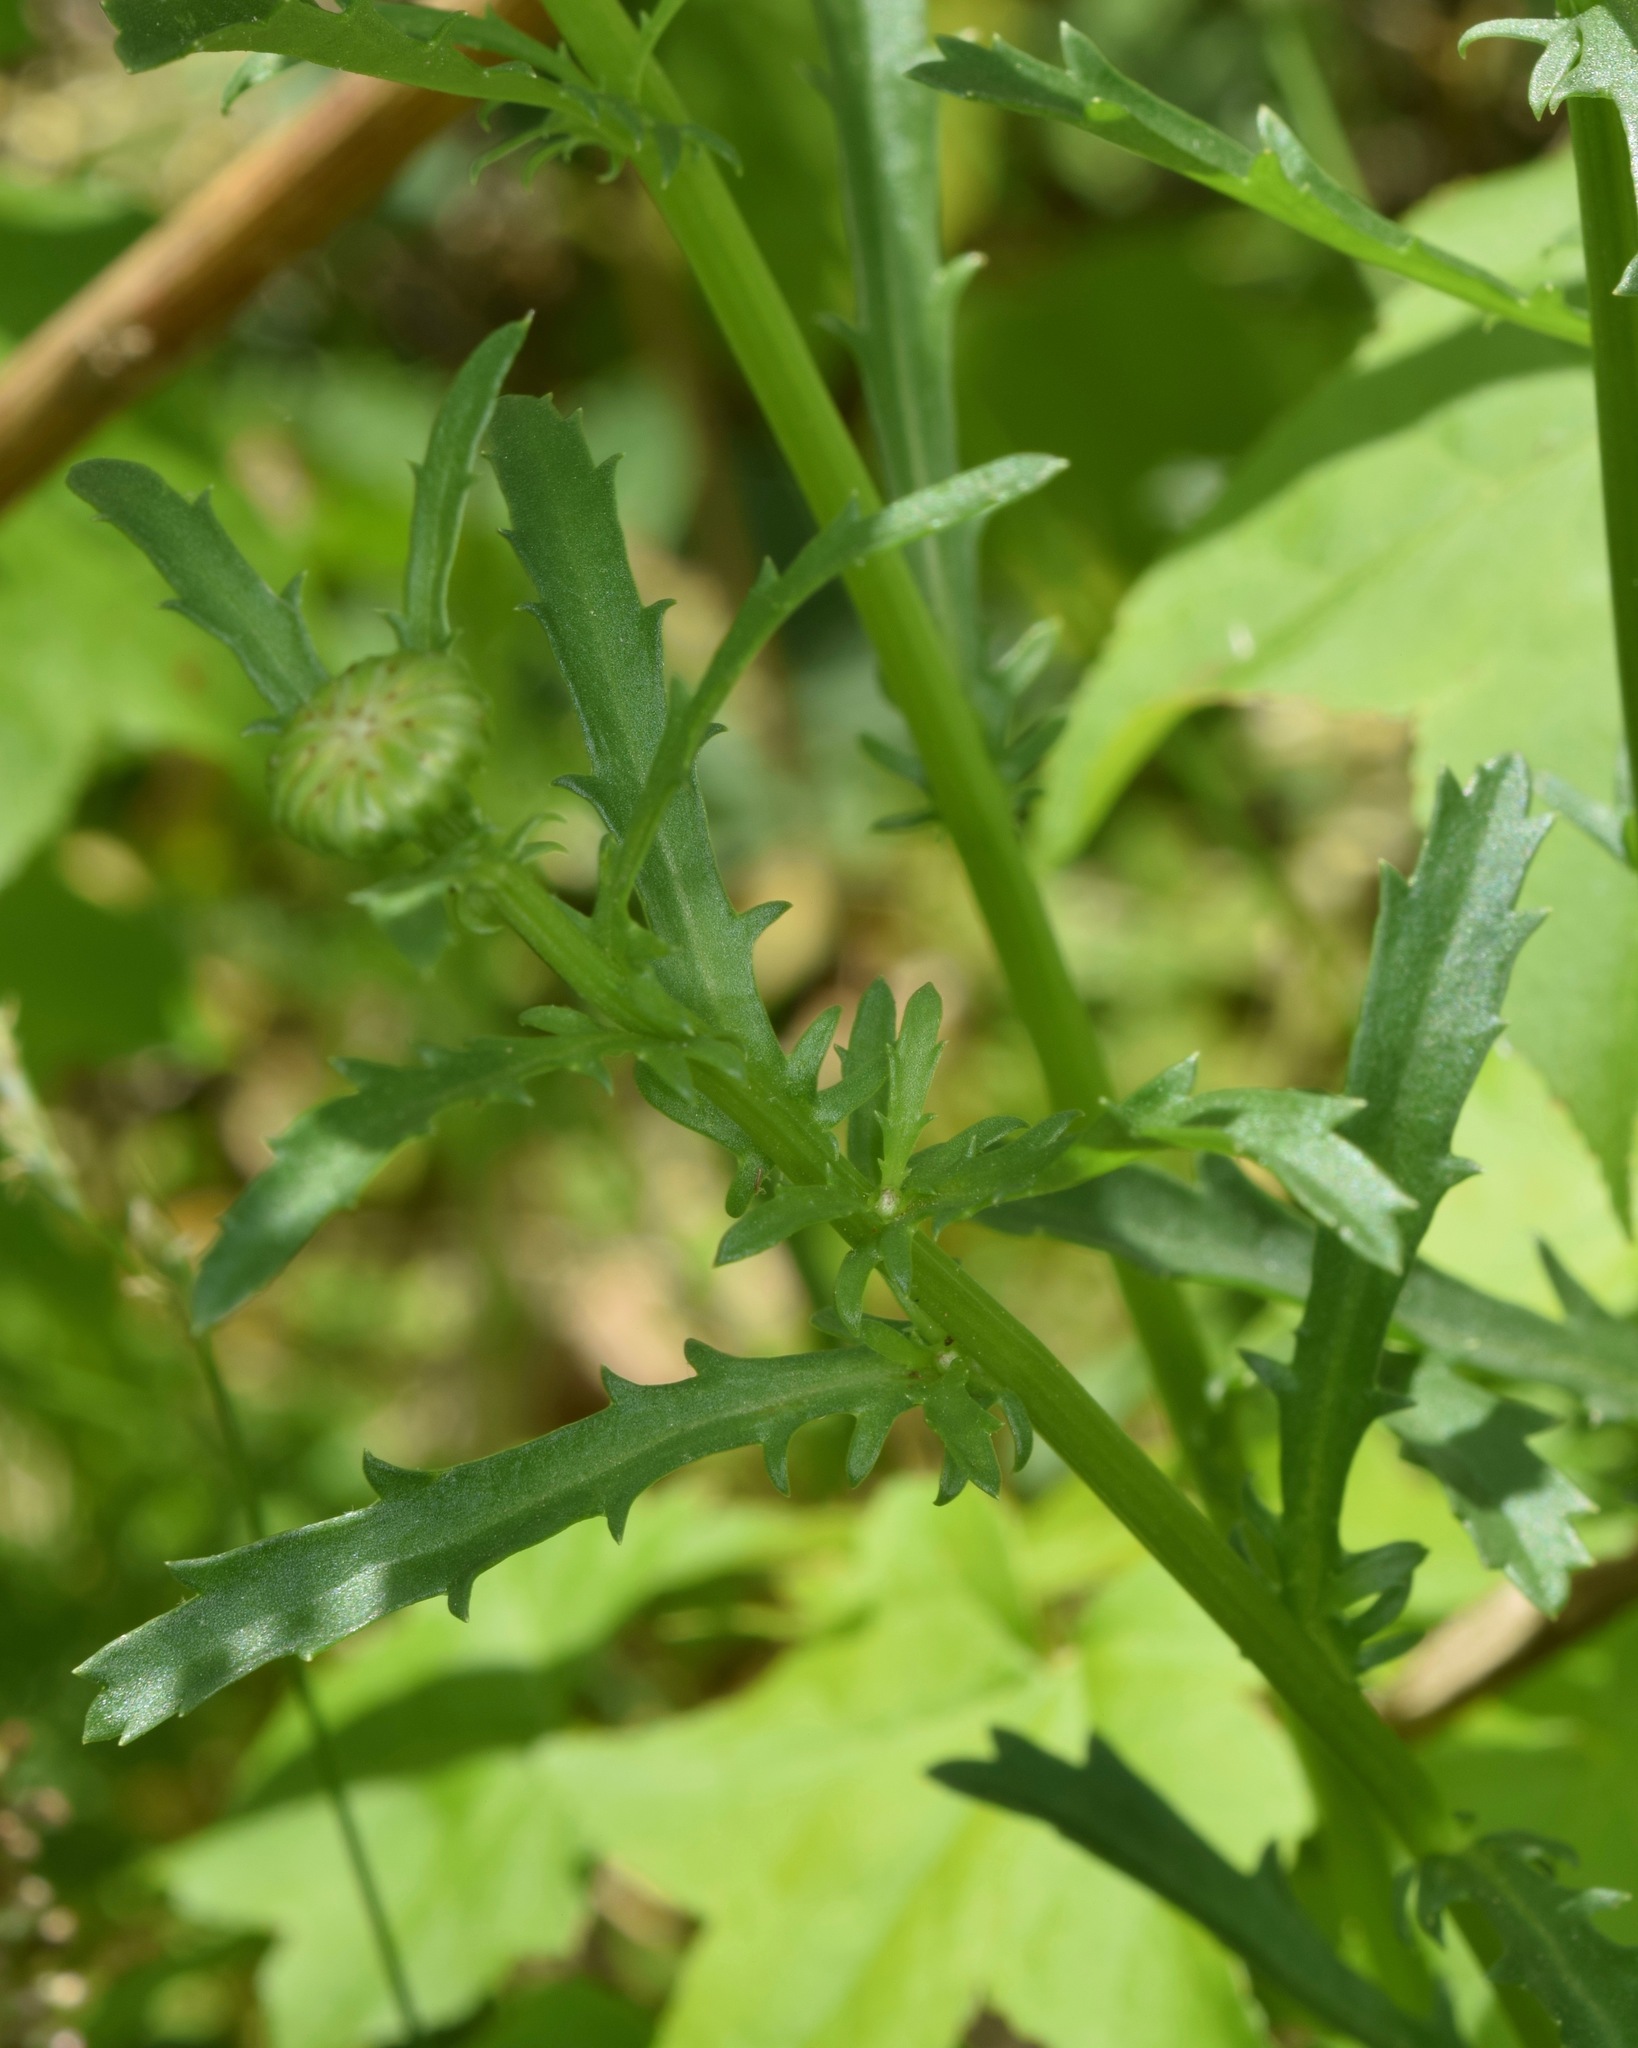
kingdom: Plantae
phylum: Tracheophyta
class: Magnoliopsida
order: Asterales
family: Asteraceae
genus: Leucanthemum
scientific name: Leucanthemum vulgare
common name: Oxeye daisy
